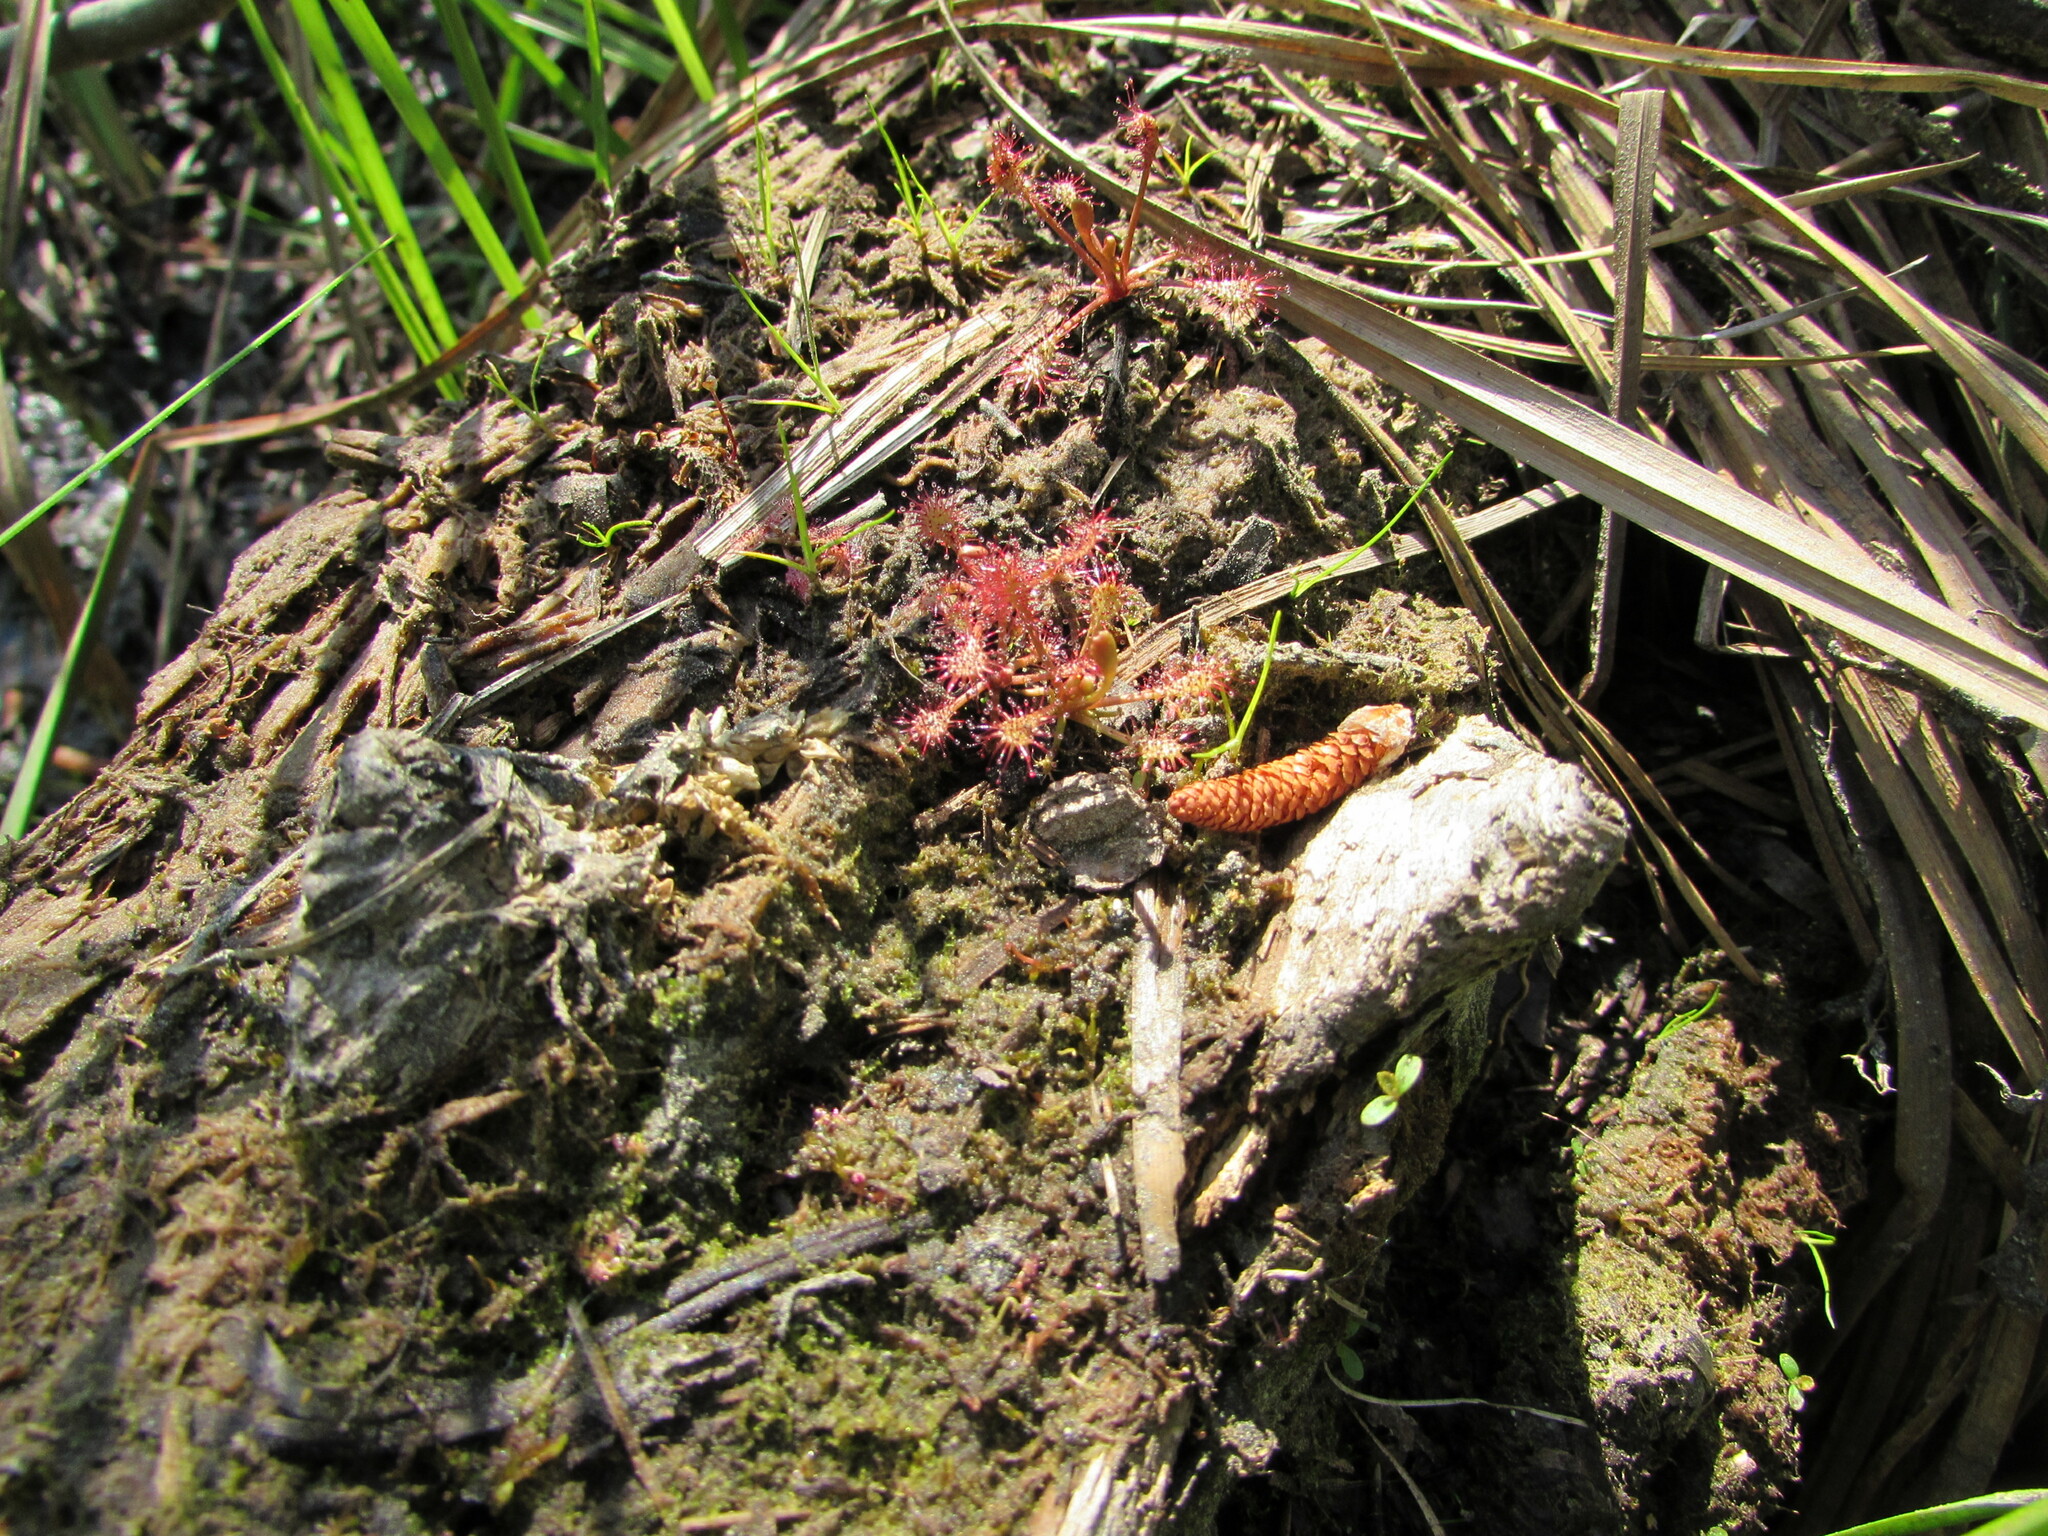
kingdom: Plantae
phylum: Tracheophyta
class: Magnoliopsida
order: Caryophyllales
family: Droseraceae
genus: Drosera
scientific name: Drosera intermedia
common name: Oblong-leaved sundew
